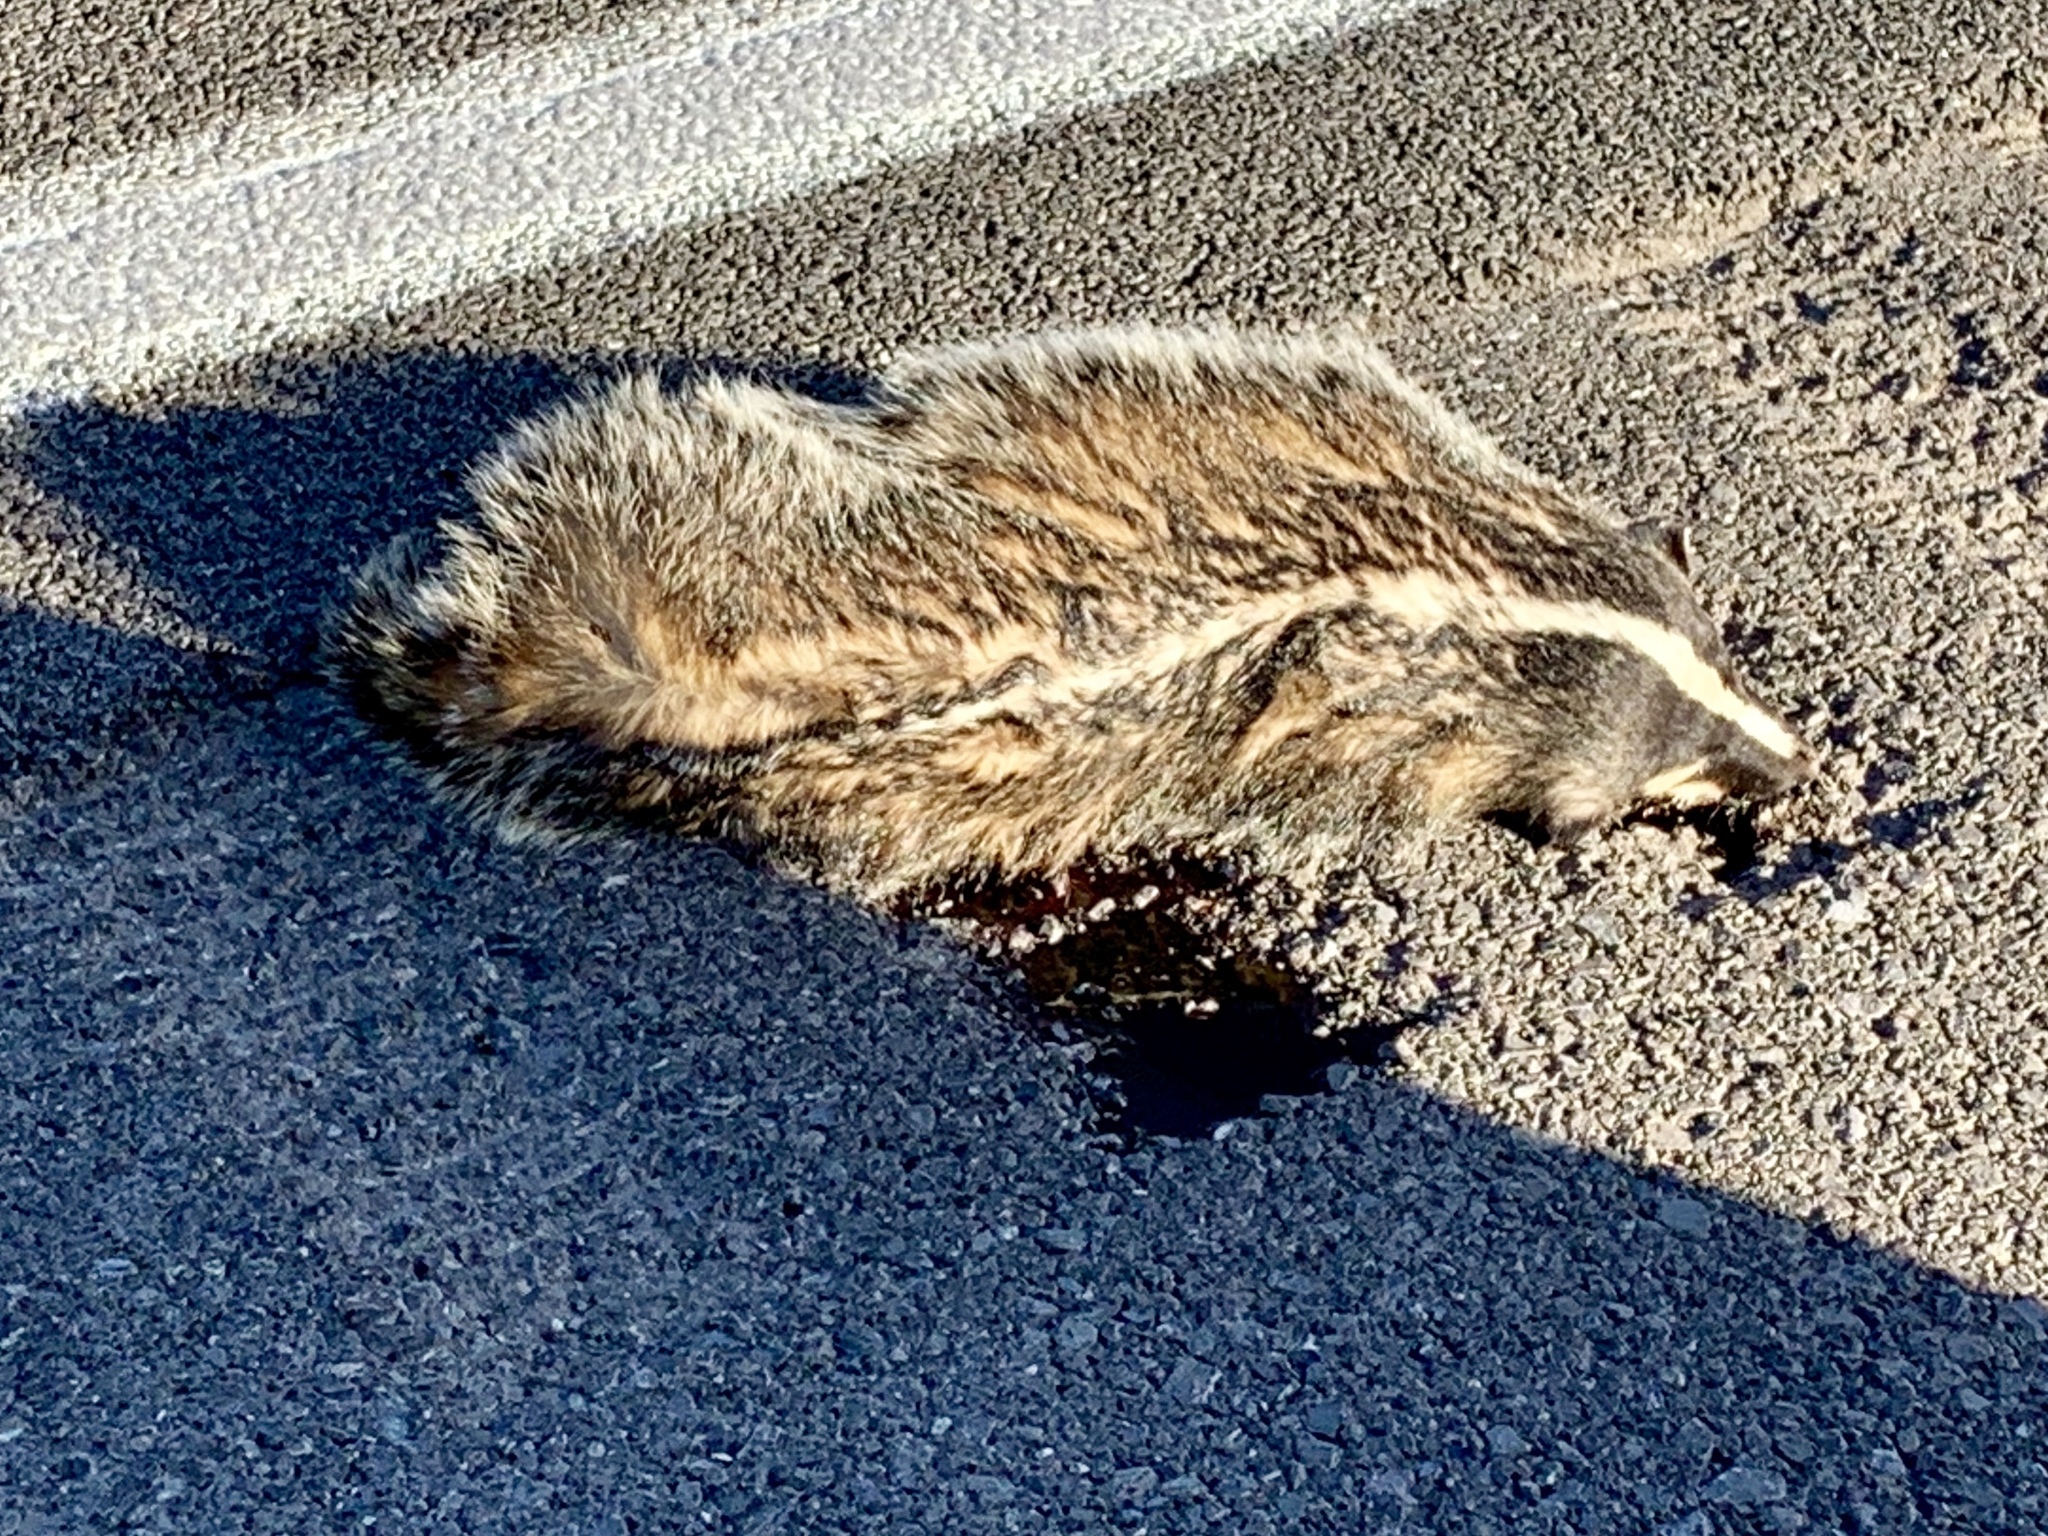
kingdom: Animalia
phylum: Chordata
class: Mammalia
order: Carnivora
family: Mustelidae
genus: Taxidea
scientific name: Taxidea taxus
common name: American badger
